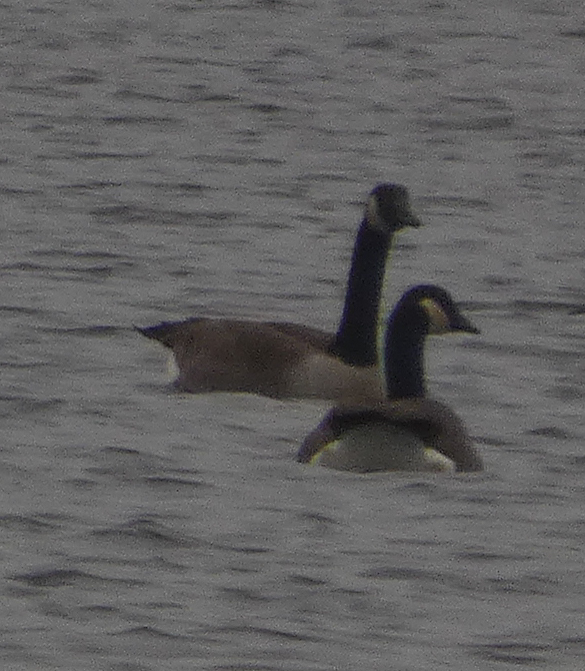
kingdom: Animalia
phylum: Chordata
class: Aves
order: Anseriformes
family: Anatidae
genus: Branta
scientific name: Branta canadensis
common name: Canada goose
